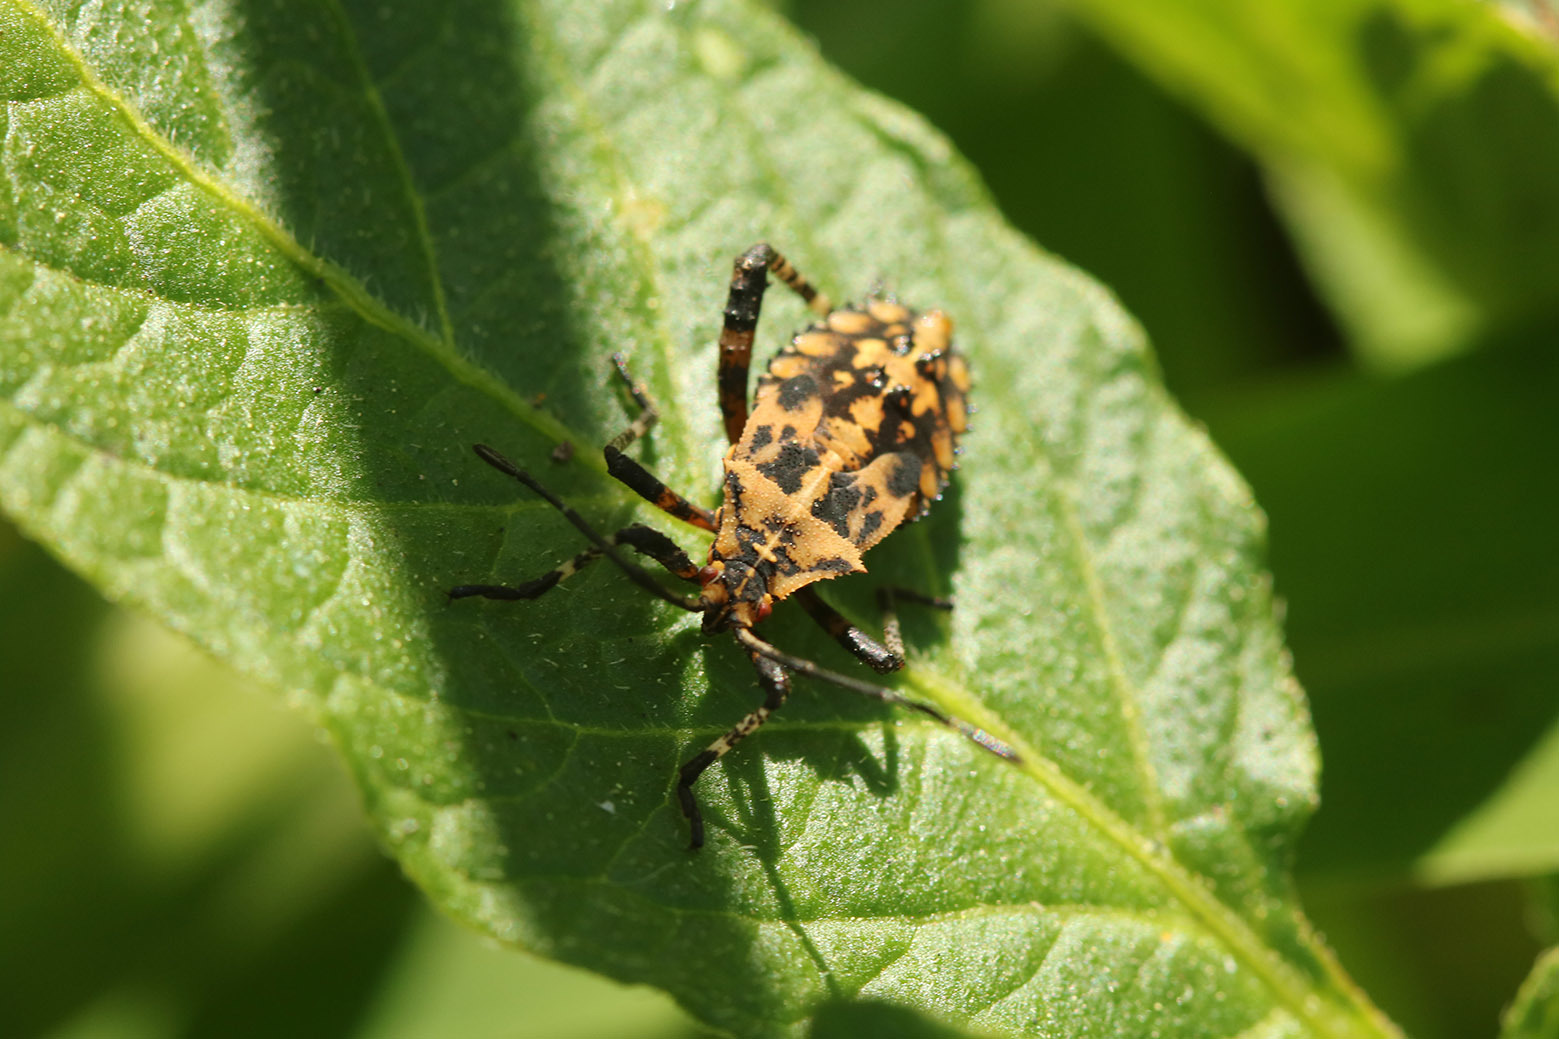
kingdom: Animalia
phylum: Arthropoda
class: Insecta
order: Hemiptera
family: Coreidae
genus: Camptischium
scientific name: Camptischium clavipes
